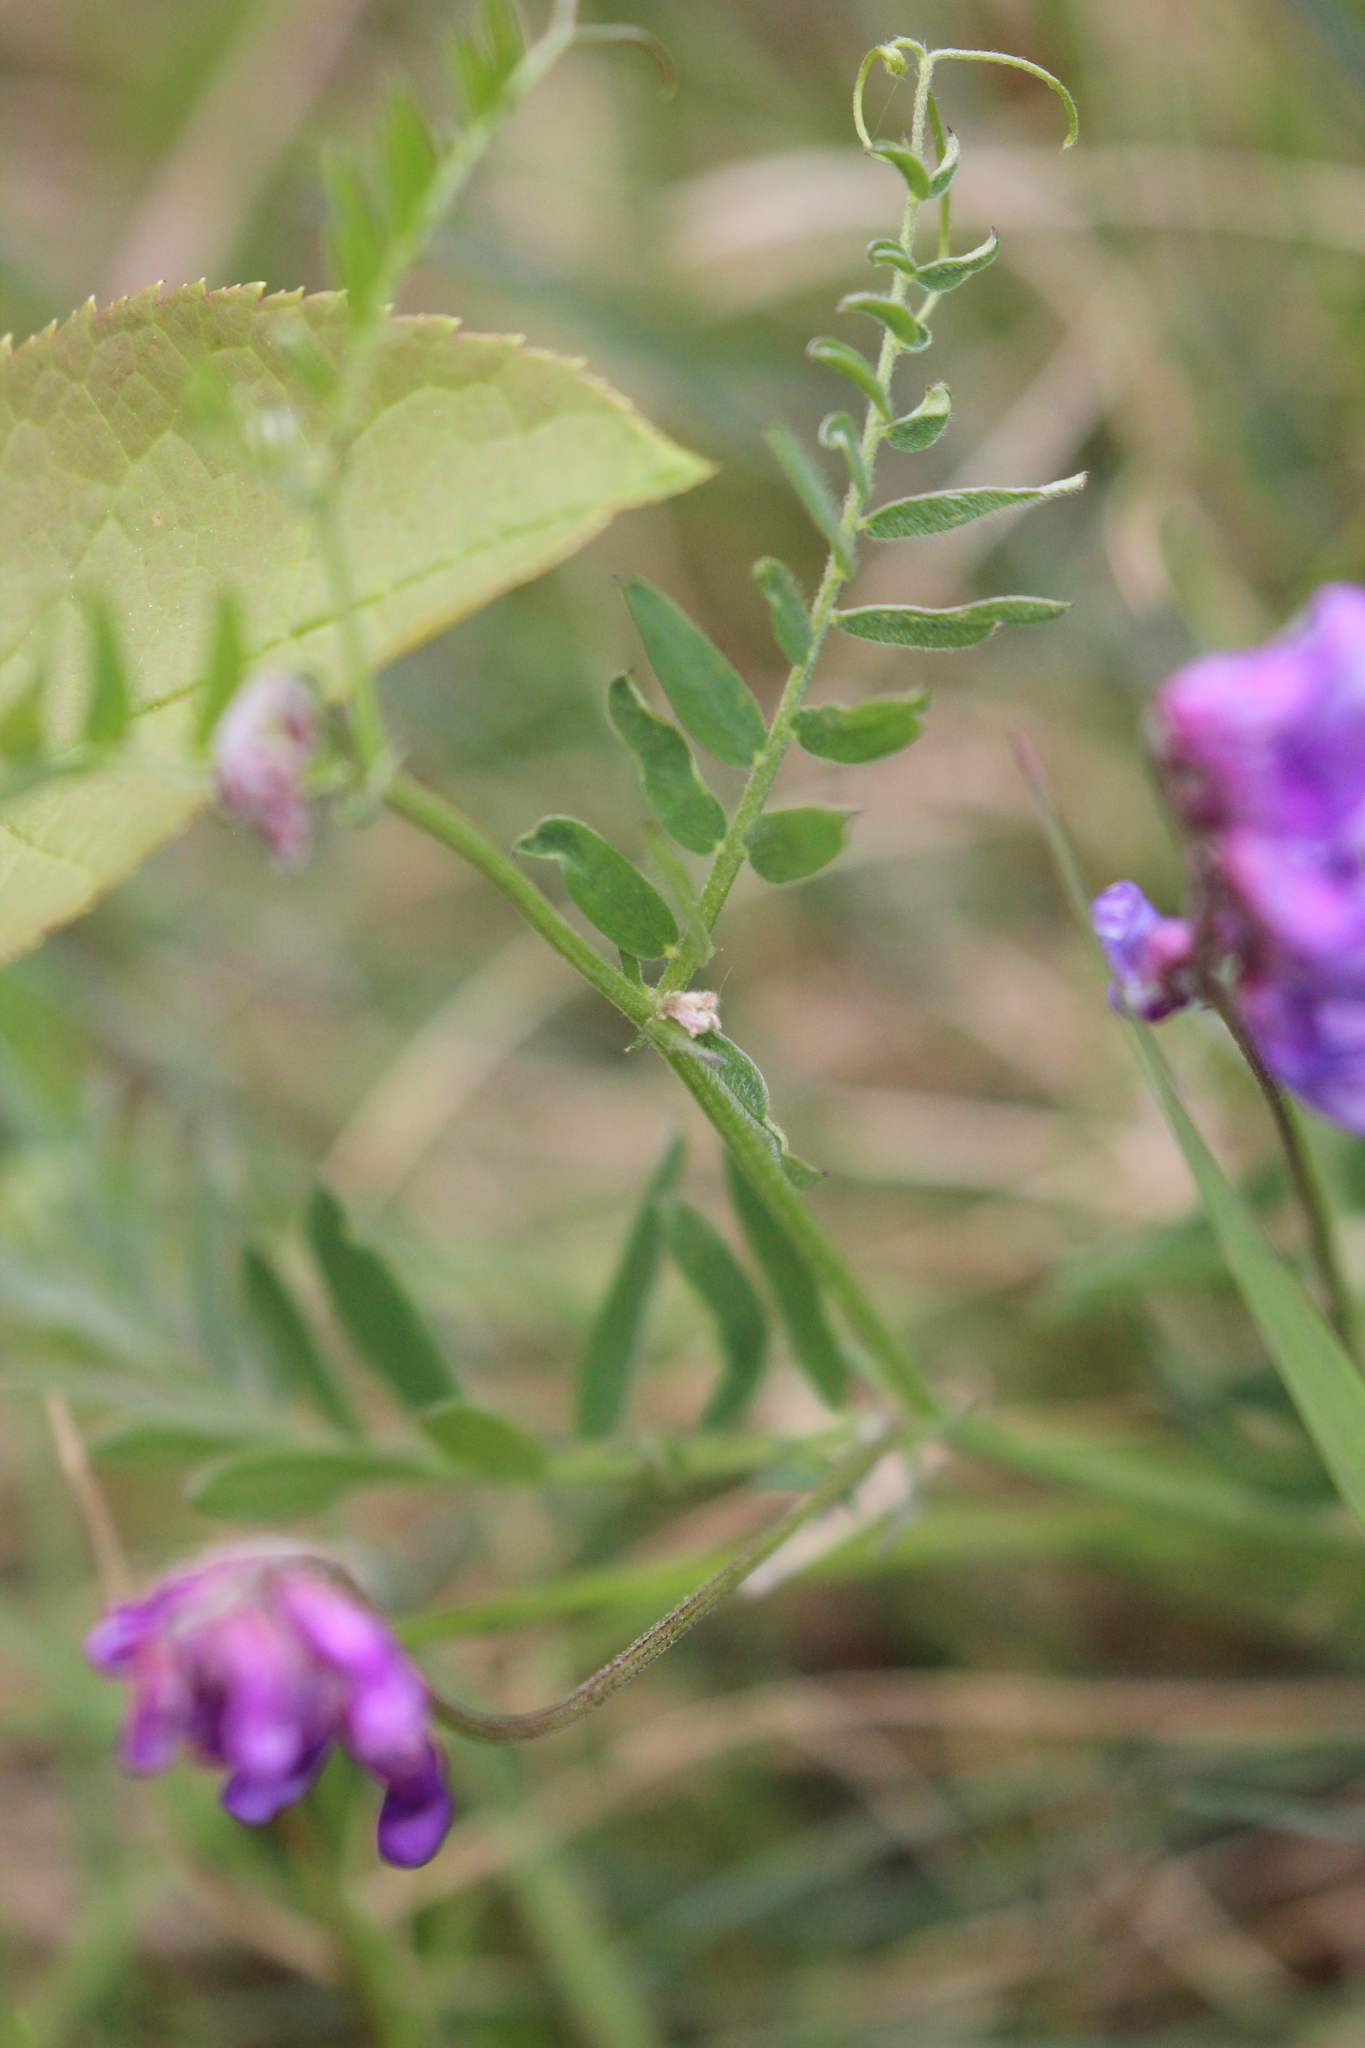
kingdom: Plantae
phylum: Tracheophyta
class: Magnoliopsida
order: Fabales
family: Fabaceae
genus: Vicia
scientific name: Vicia cracca
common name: Bird vetch
